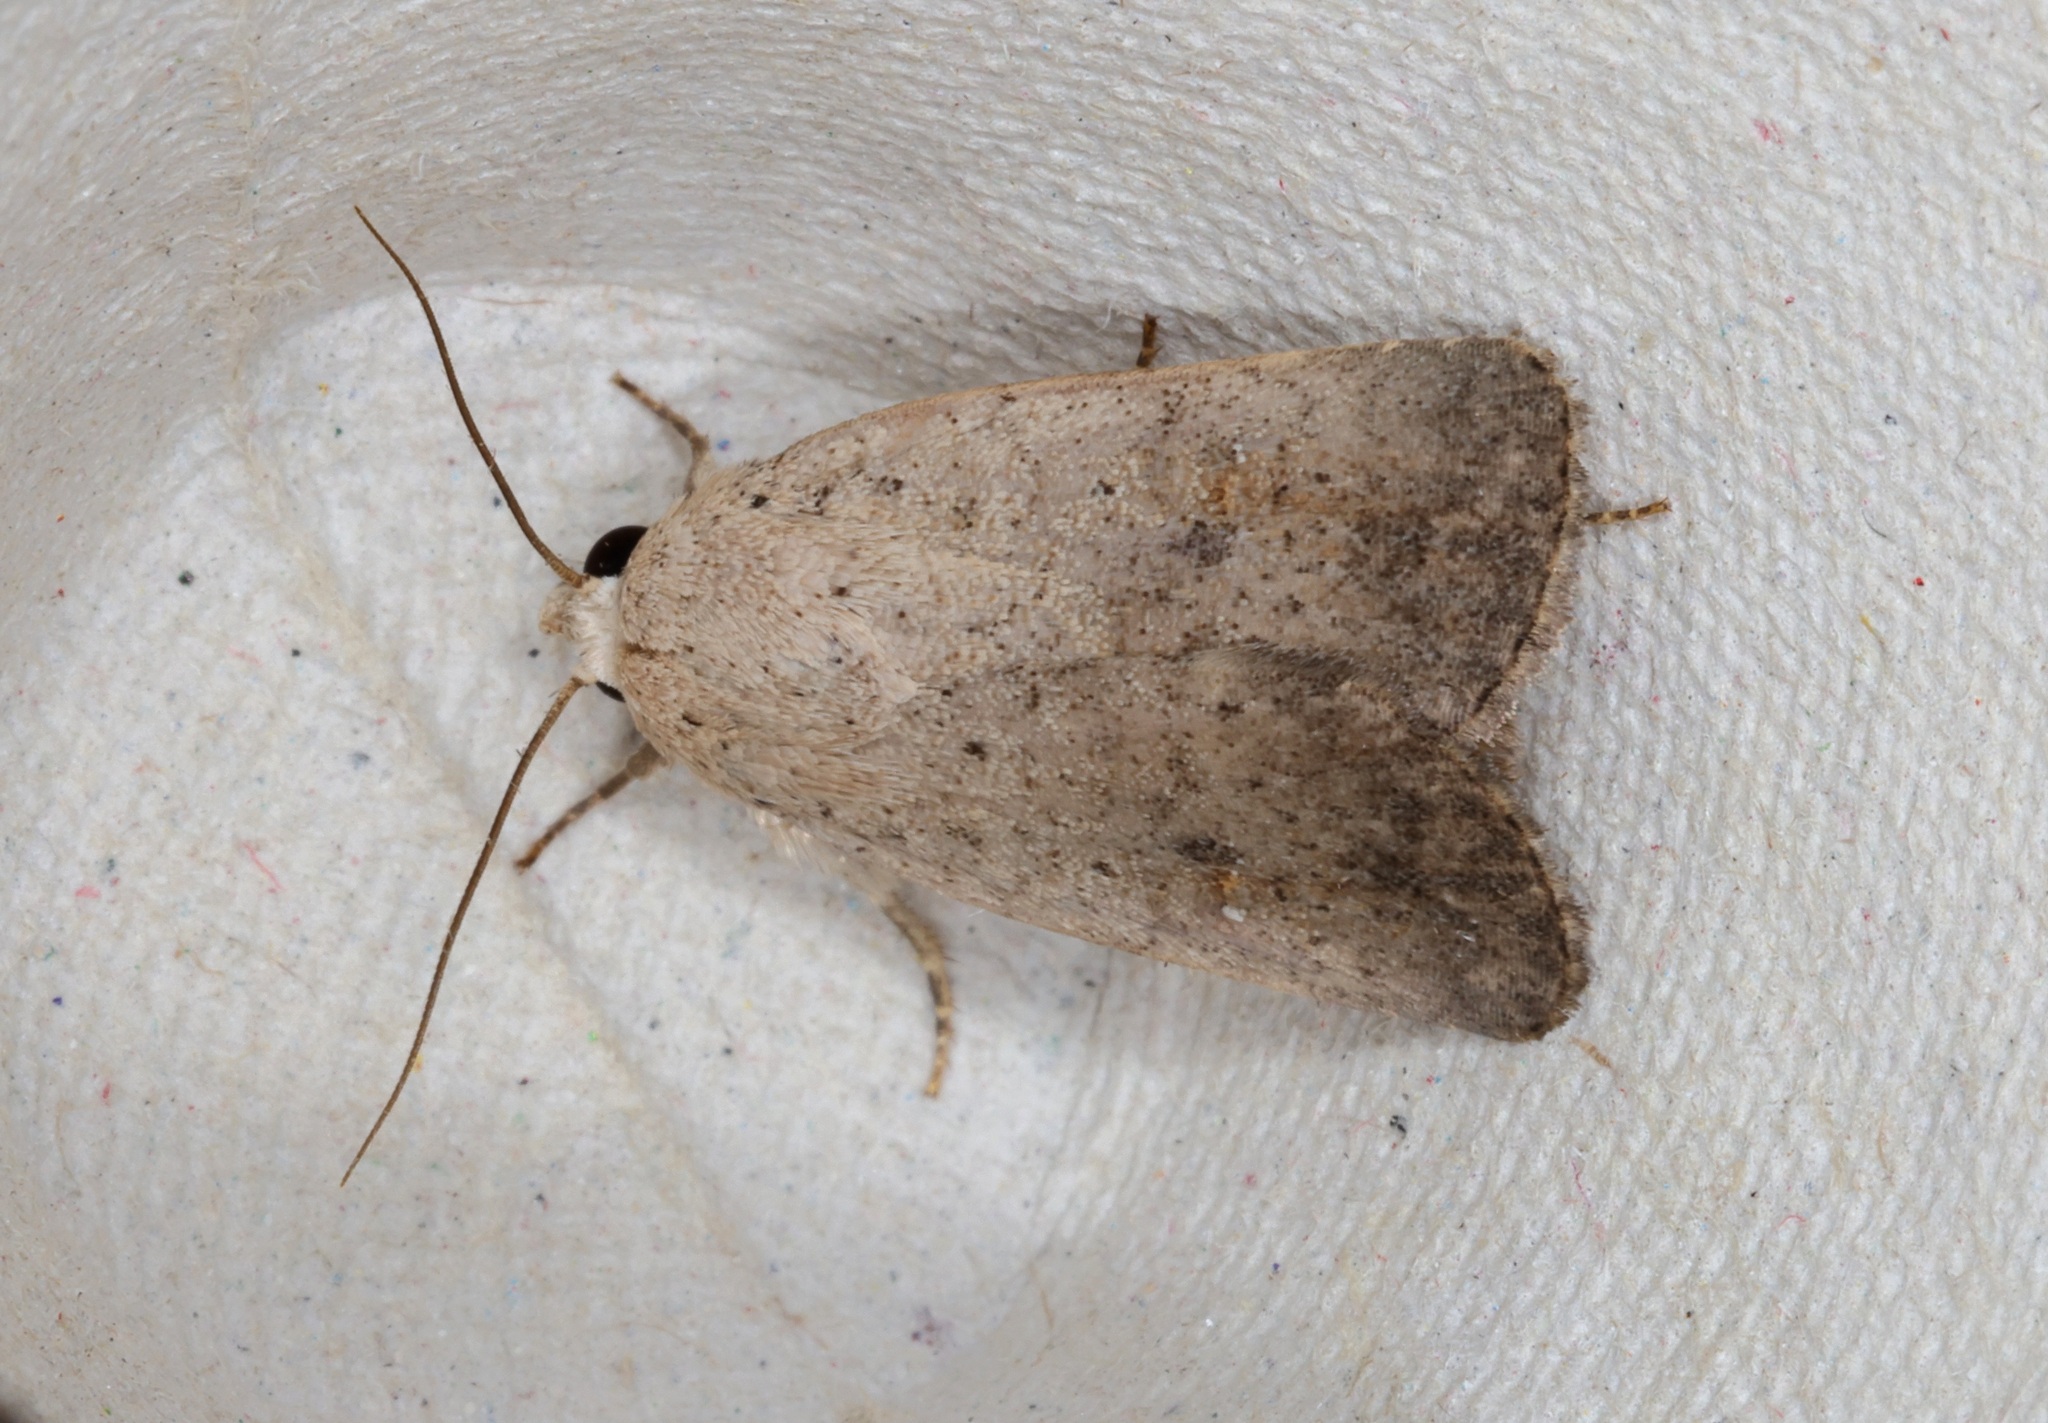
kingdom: Animalia
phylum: Arthropoda
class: Insecta
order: Lepidoptera
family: Noctuidae
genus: Athetis
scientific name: Athetis bremusa
